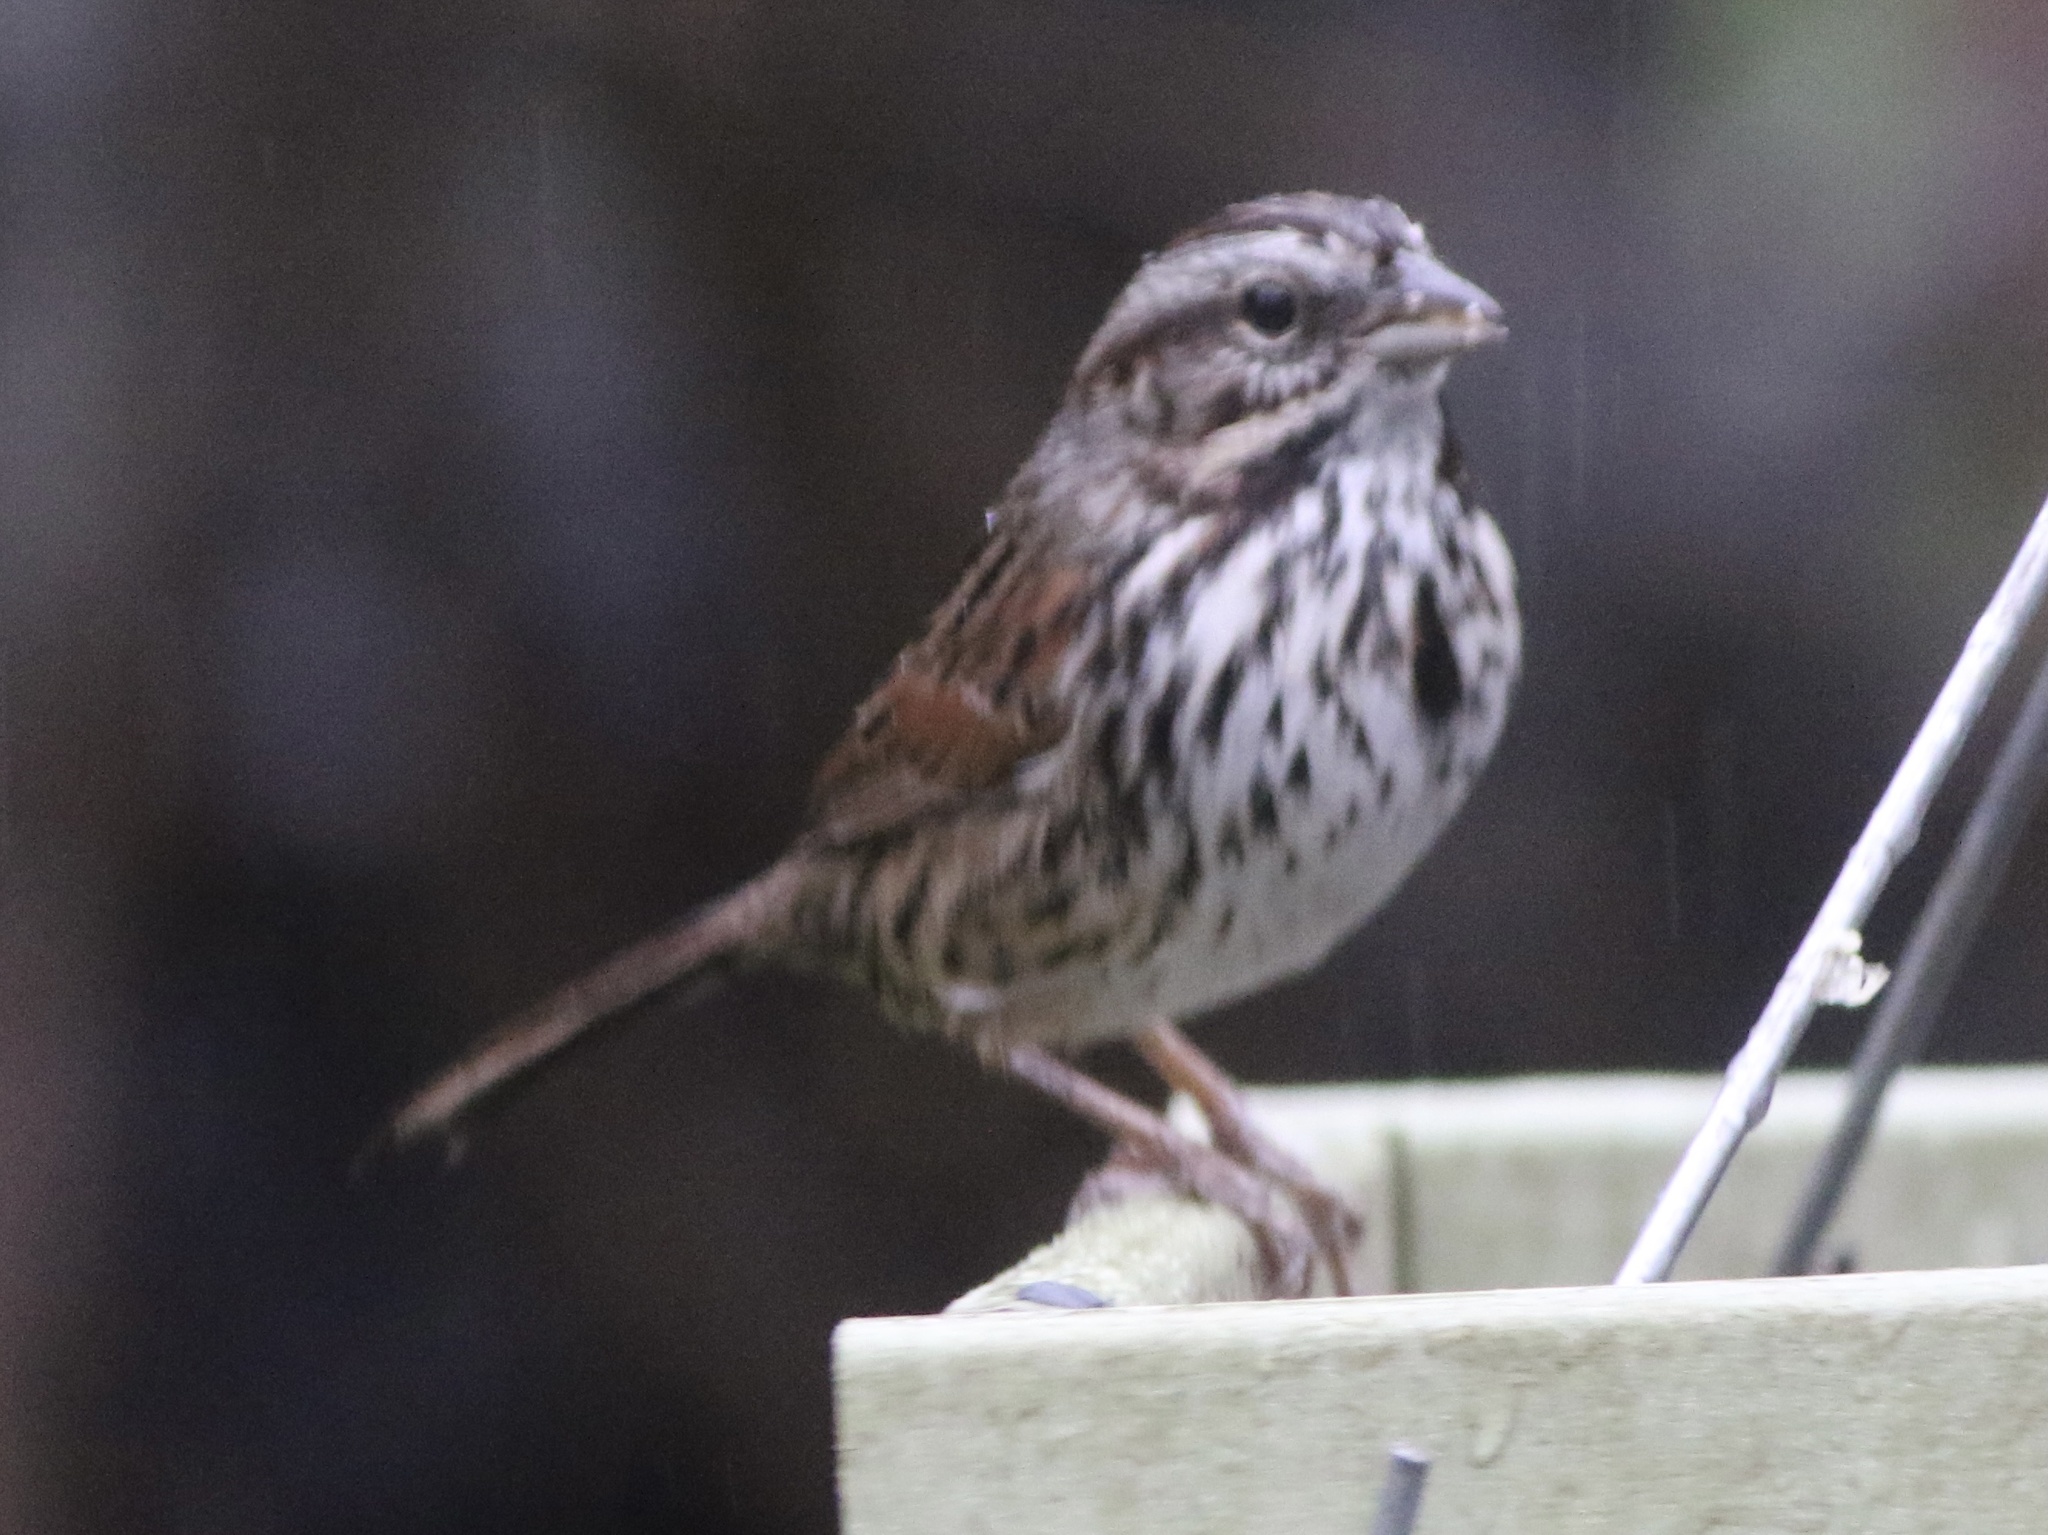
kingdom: Animalia
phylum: Chordata
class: Aves
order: Passeriformes
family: Passerellidae
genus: Melospiza
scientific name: Melospiza melodia
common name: Song sparrow
